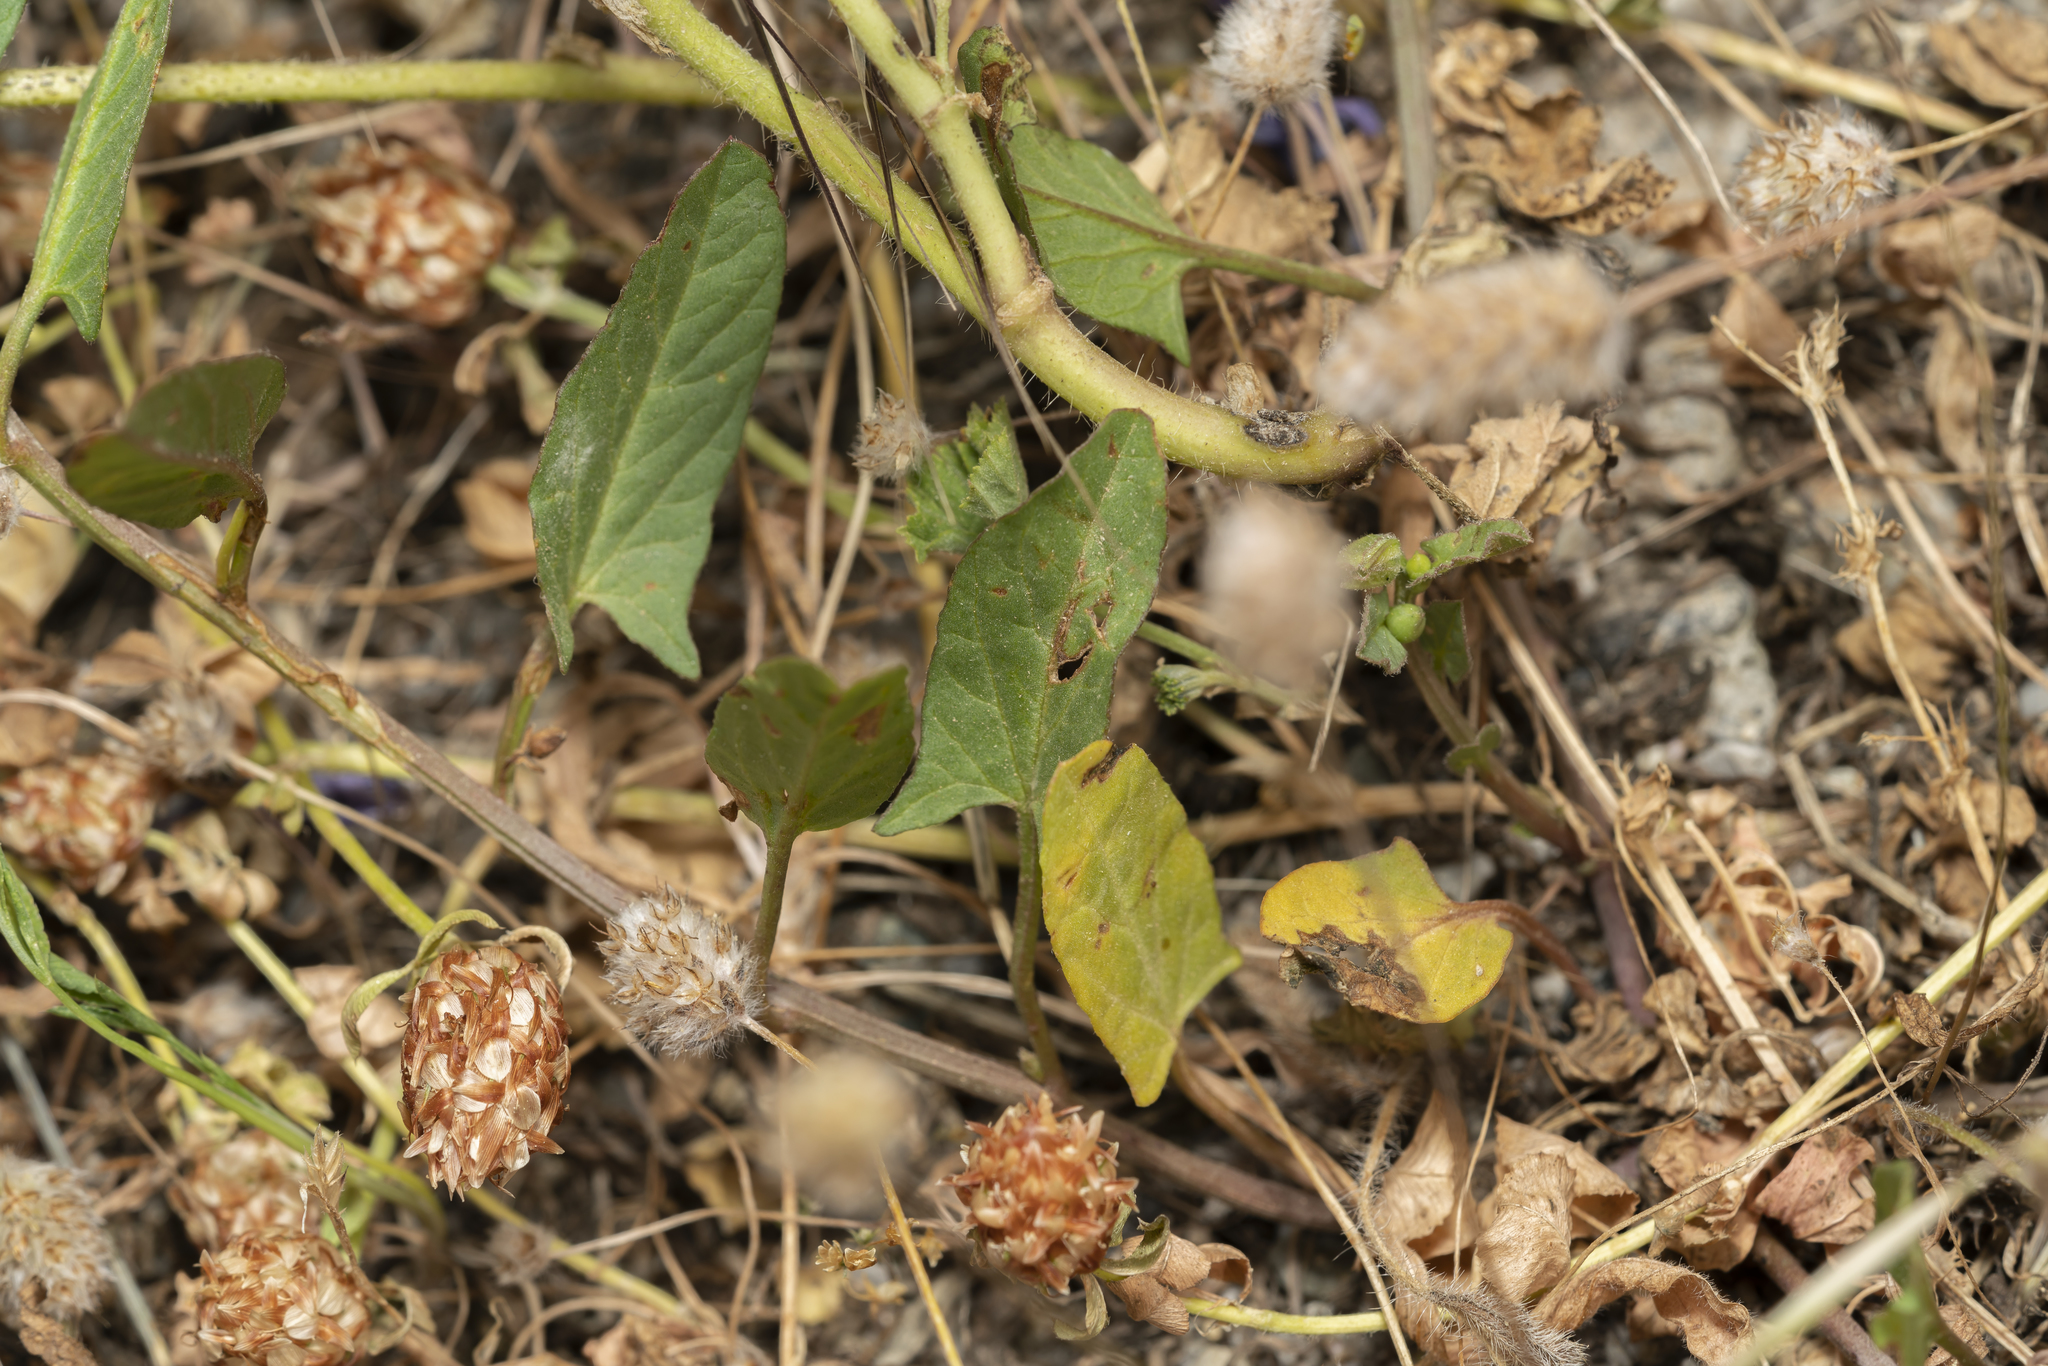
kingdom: Plantae
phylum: Tracheophyta
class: Magnoliopsida
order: Solanales
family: Convolvulaceae
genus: Convolvulus
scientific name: Convolvulus arvensis
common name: Field bindweed
